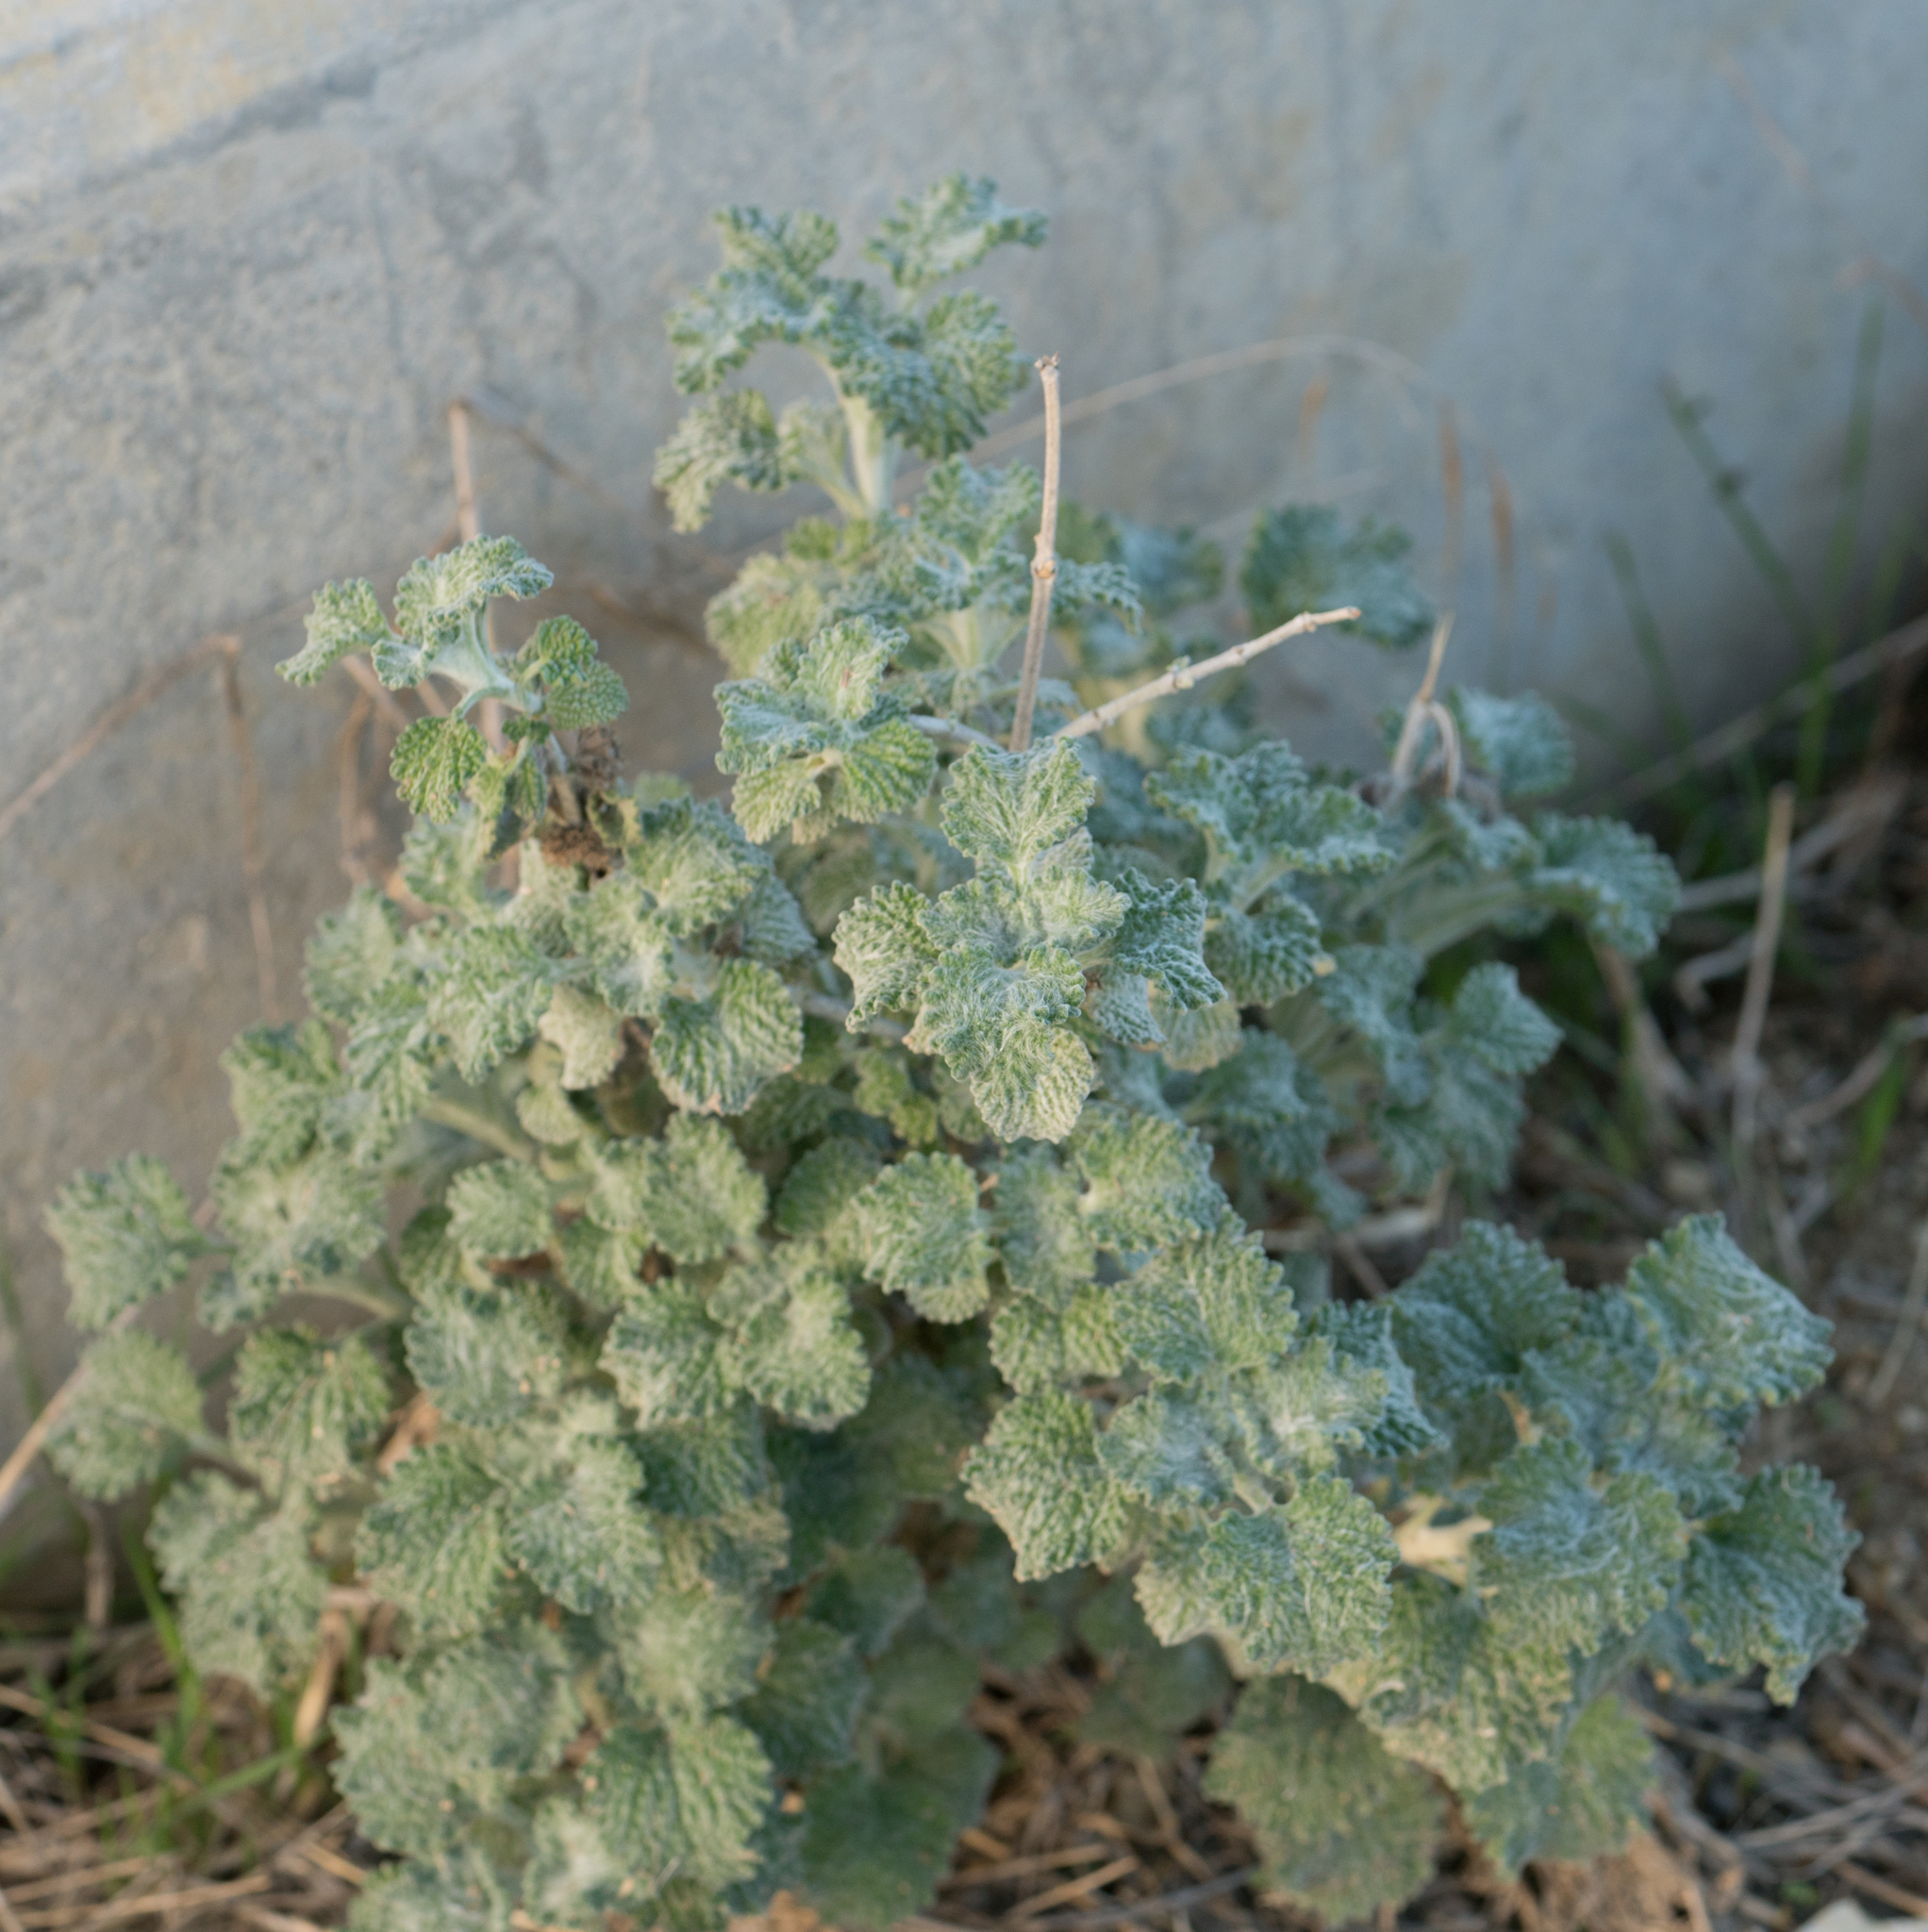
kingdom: Plantae
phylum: Tracheophyta
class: Magnoliopsida
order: Lamiales
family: Lamiaceae
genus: Marrubium
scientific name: Marrubium vulgare
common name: Horehound
